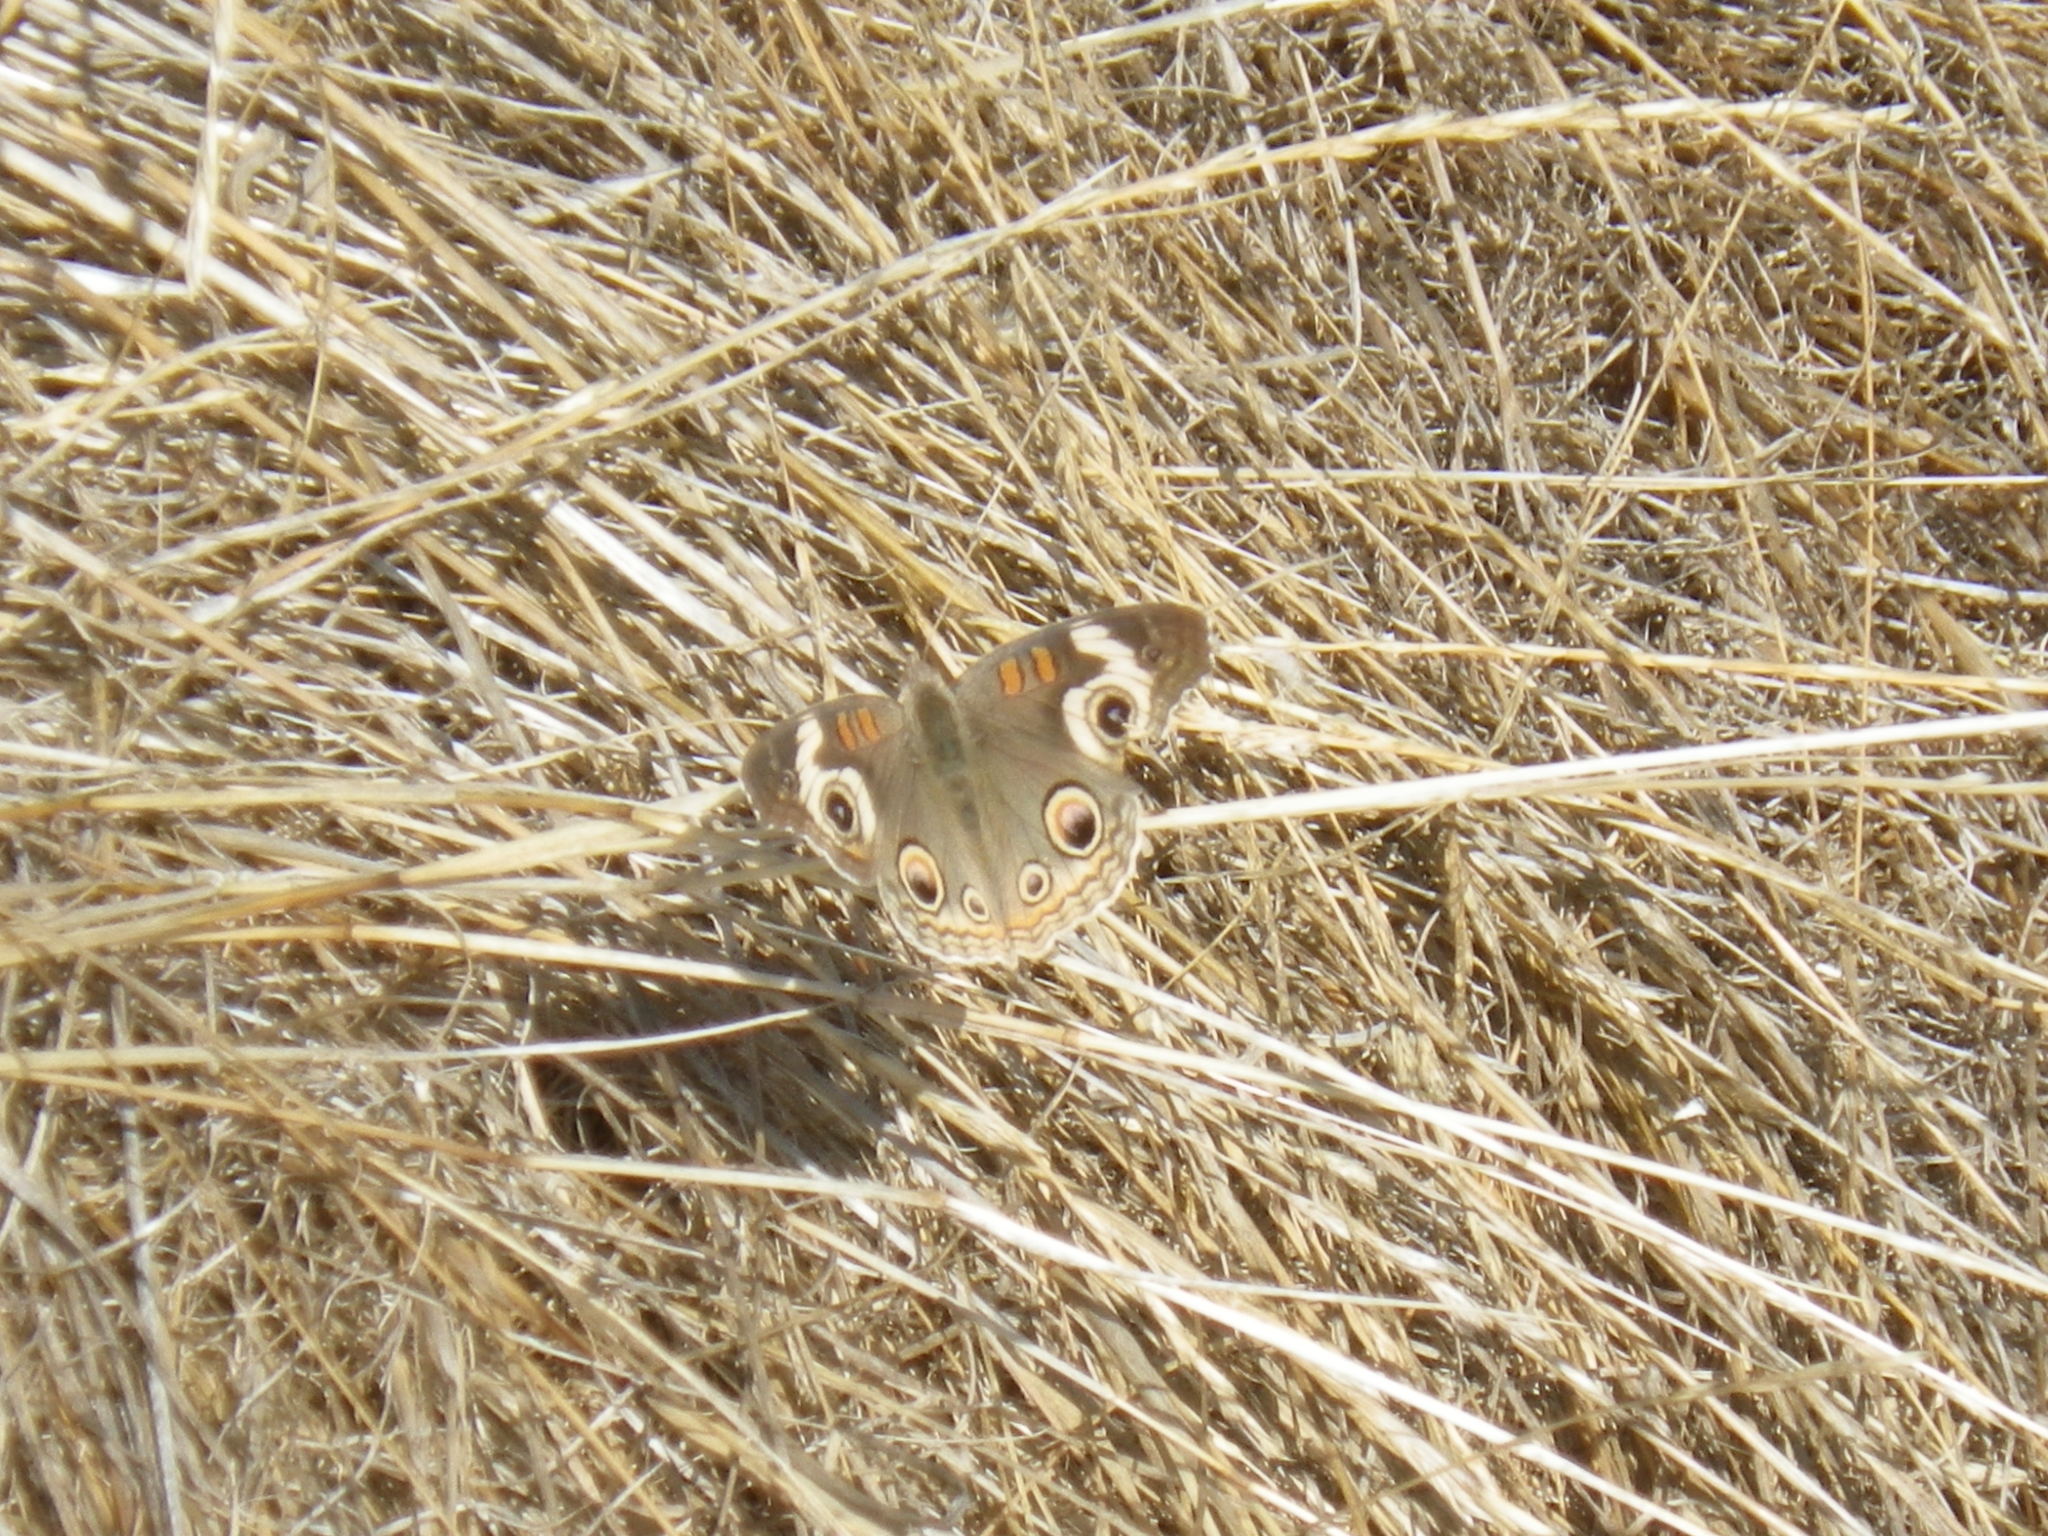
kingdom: Animalia
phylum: Arthropoda
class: Insecta
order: Lepidoptera
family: Nymphalidae
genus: Junonia
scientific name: Junonia grisea
